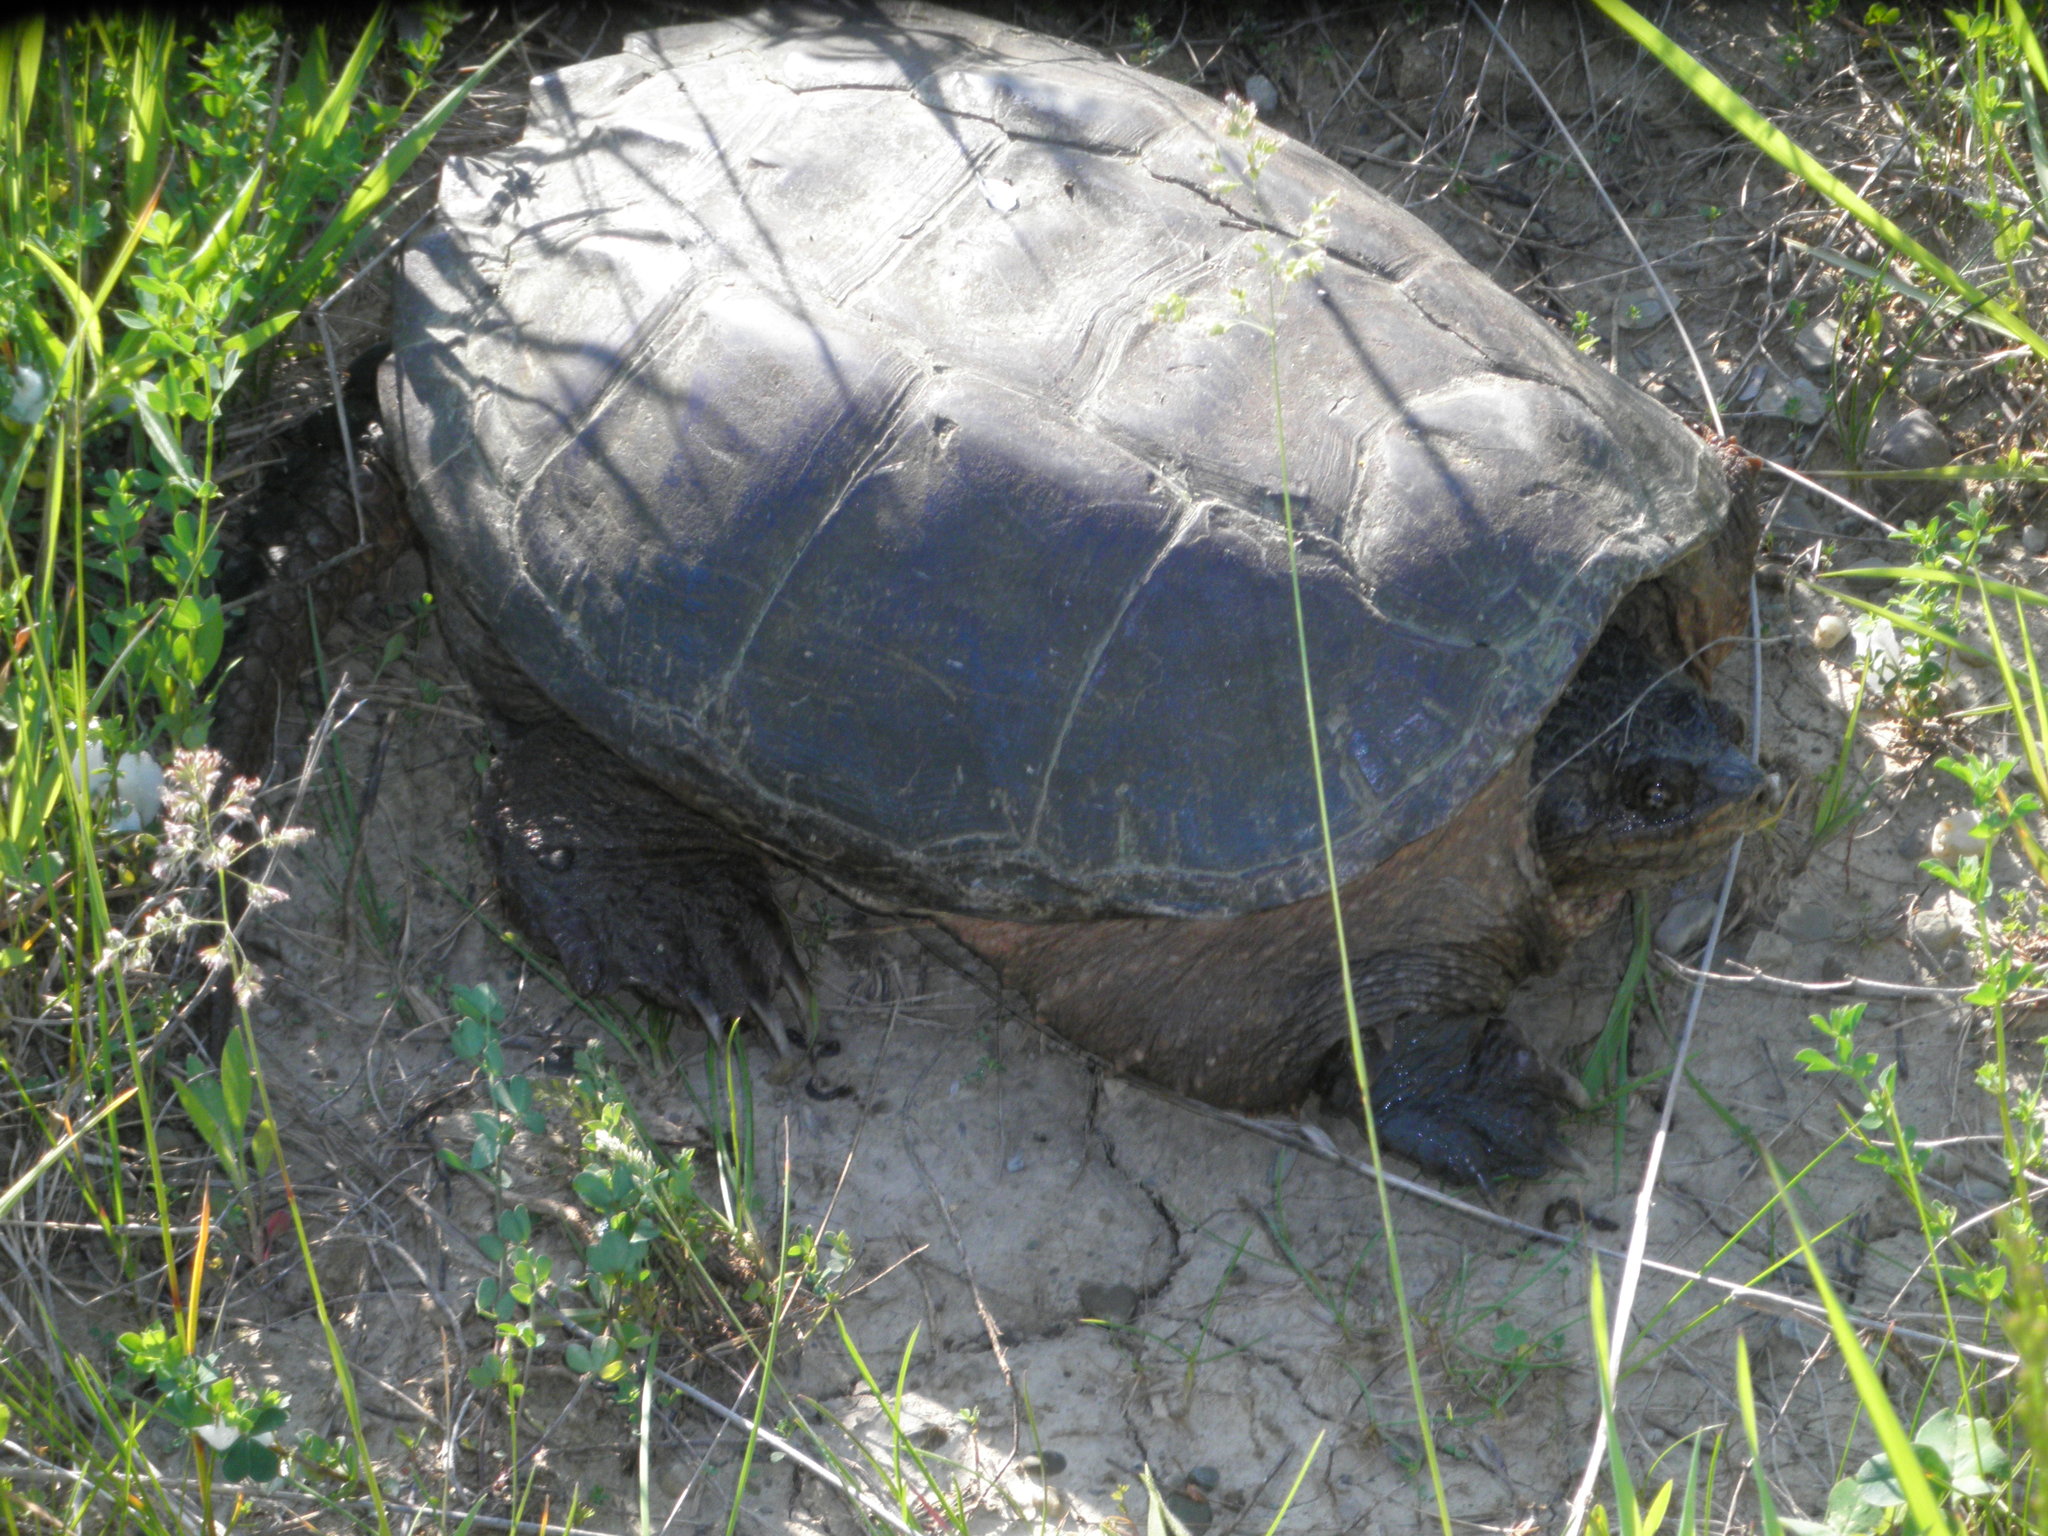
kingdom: Animalia
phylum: Chordata
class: Testudines
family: Chelydridae
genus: Chelydra
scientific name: Chelydra serpentina
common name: Common snapping turtle
